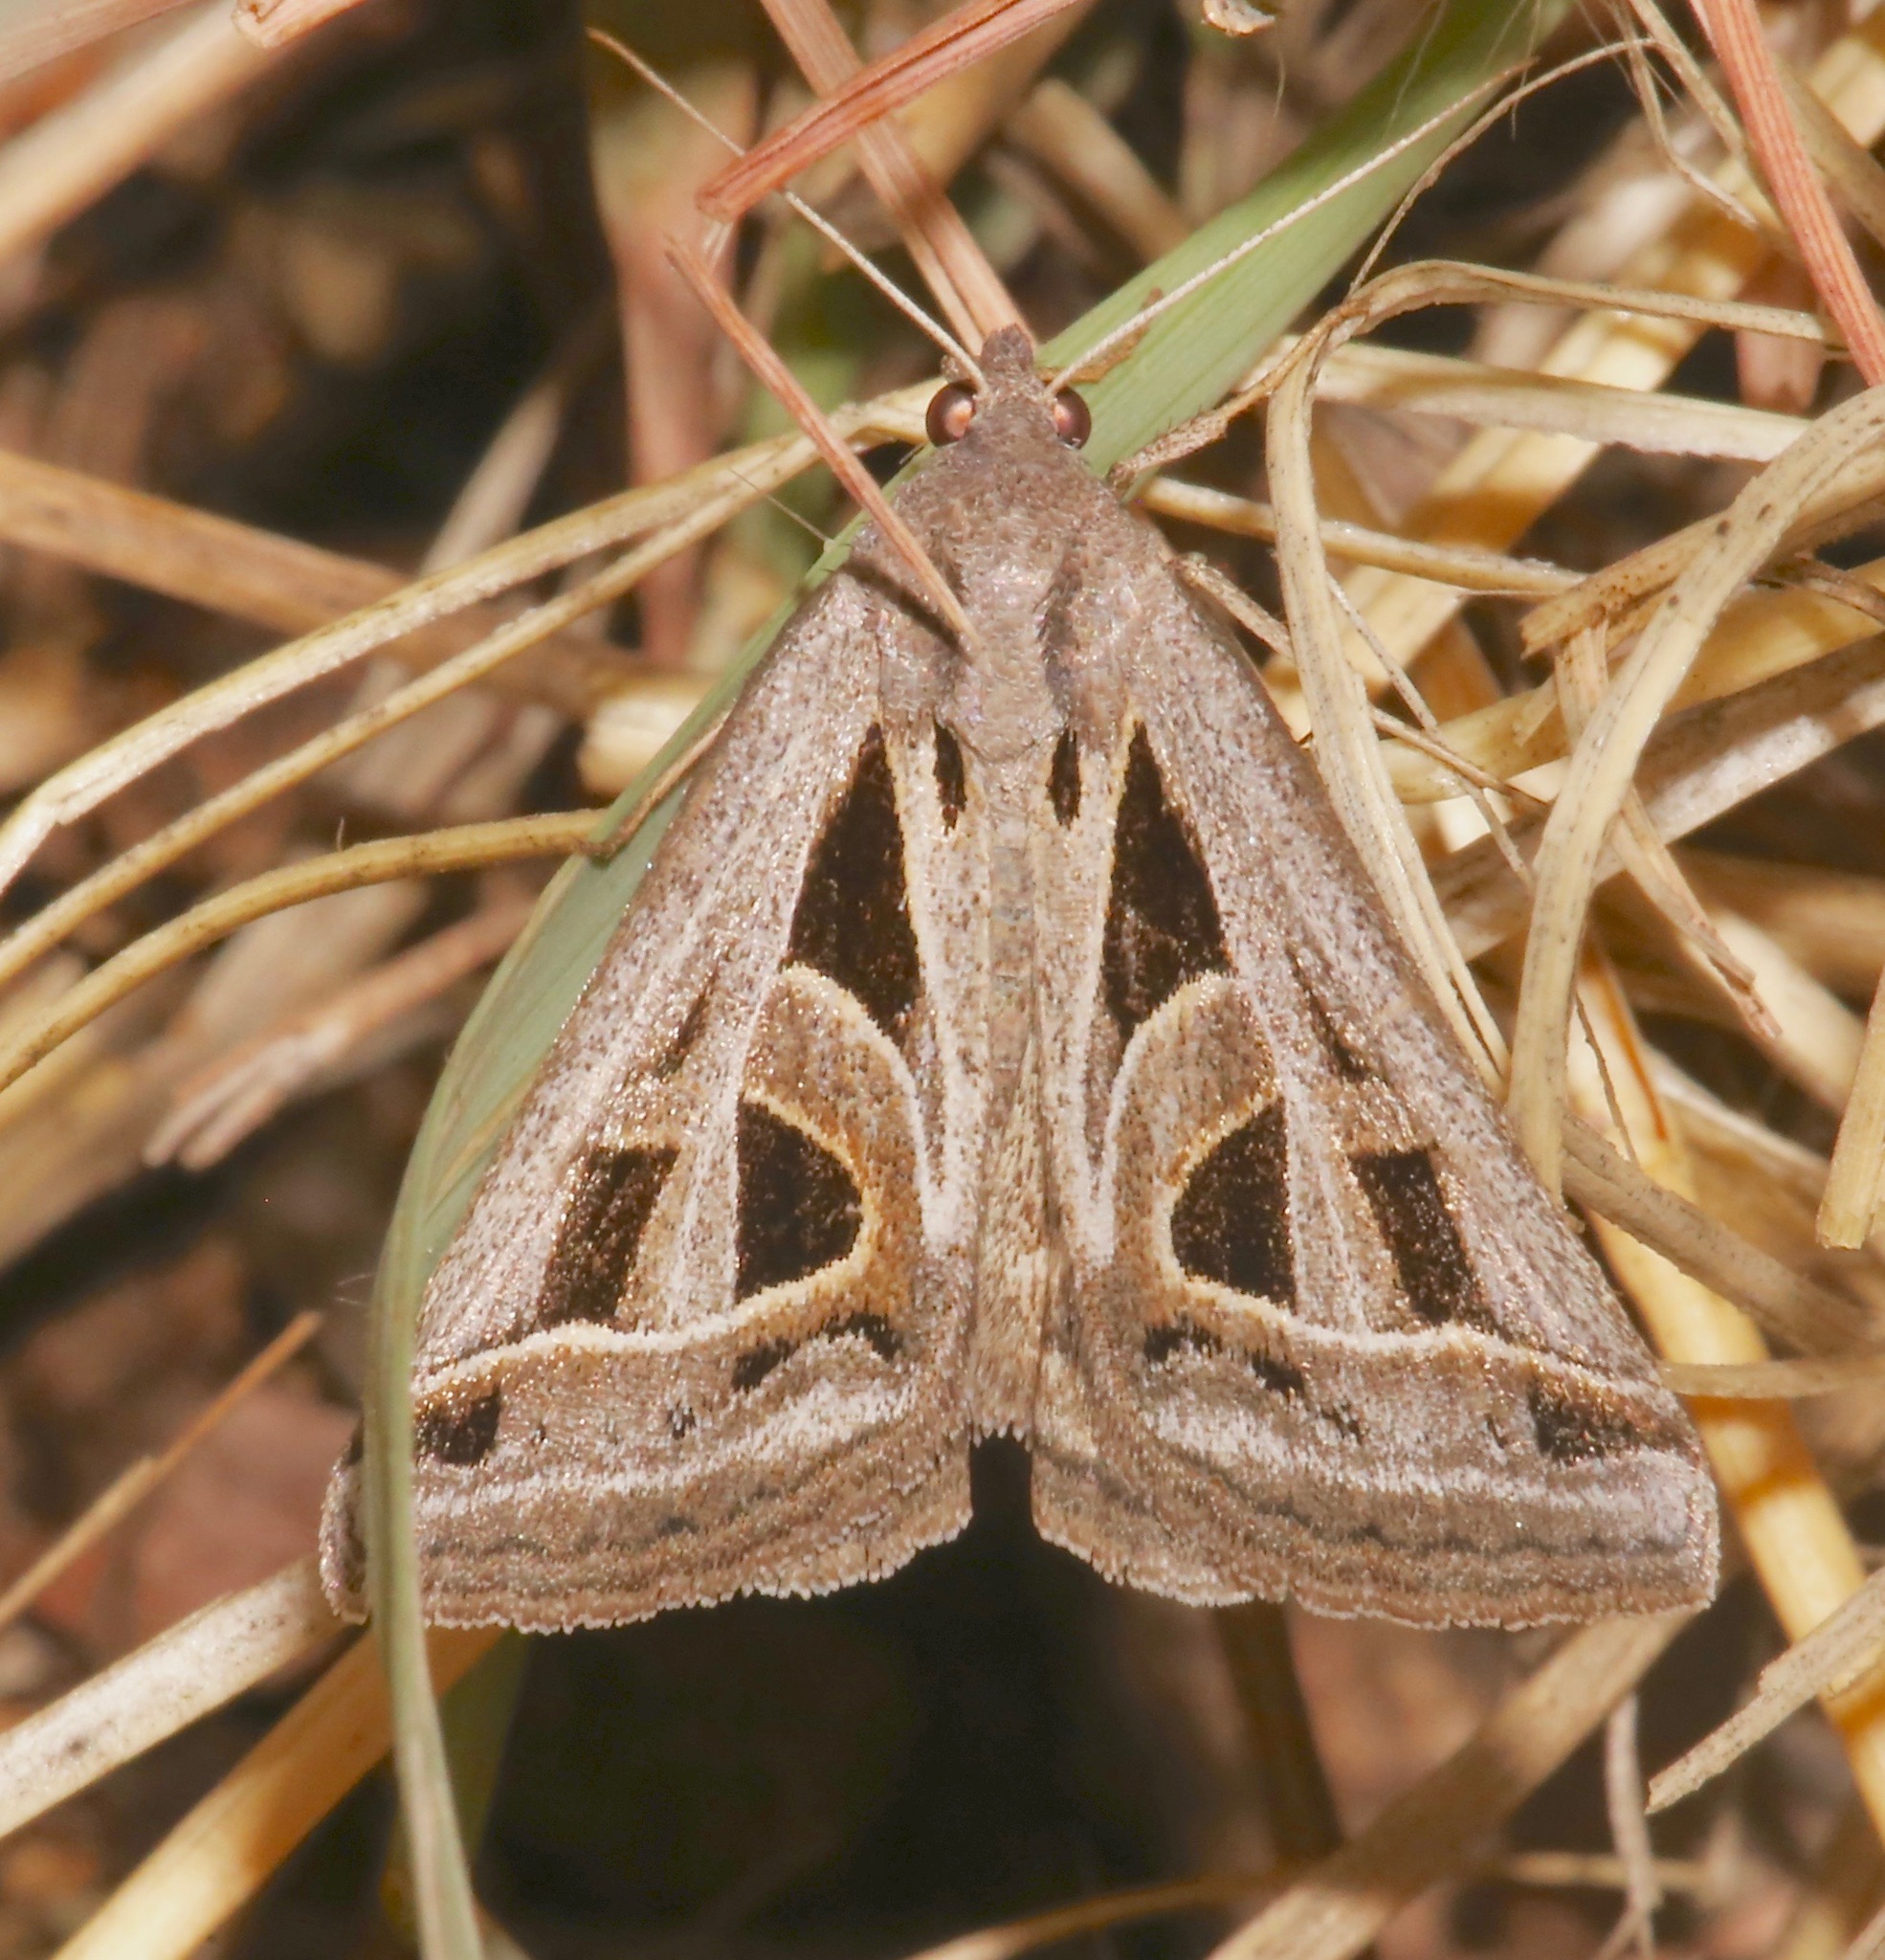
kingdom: Animalia
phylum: Arthropoda
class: Insecta
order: Lepidoptera
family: Erebidae
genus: Callistege
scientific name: Callistege diagonalis
